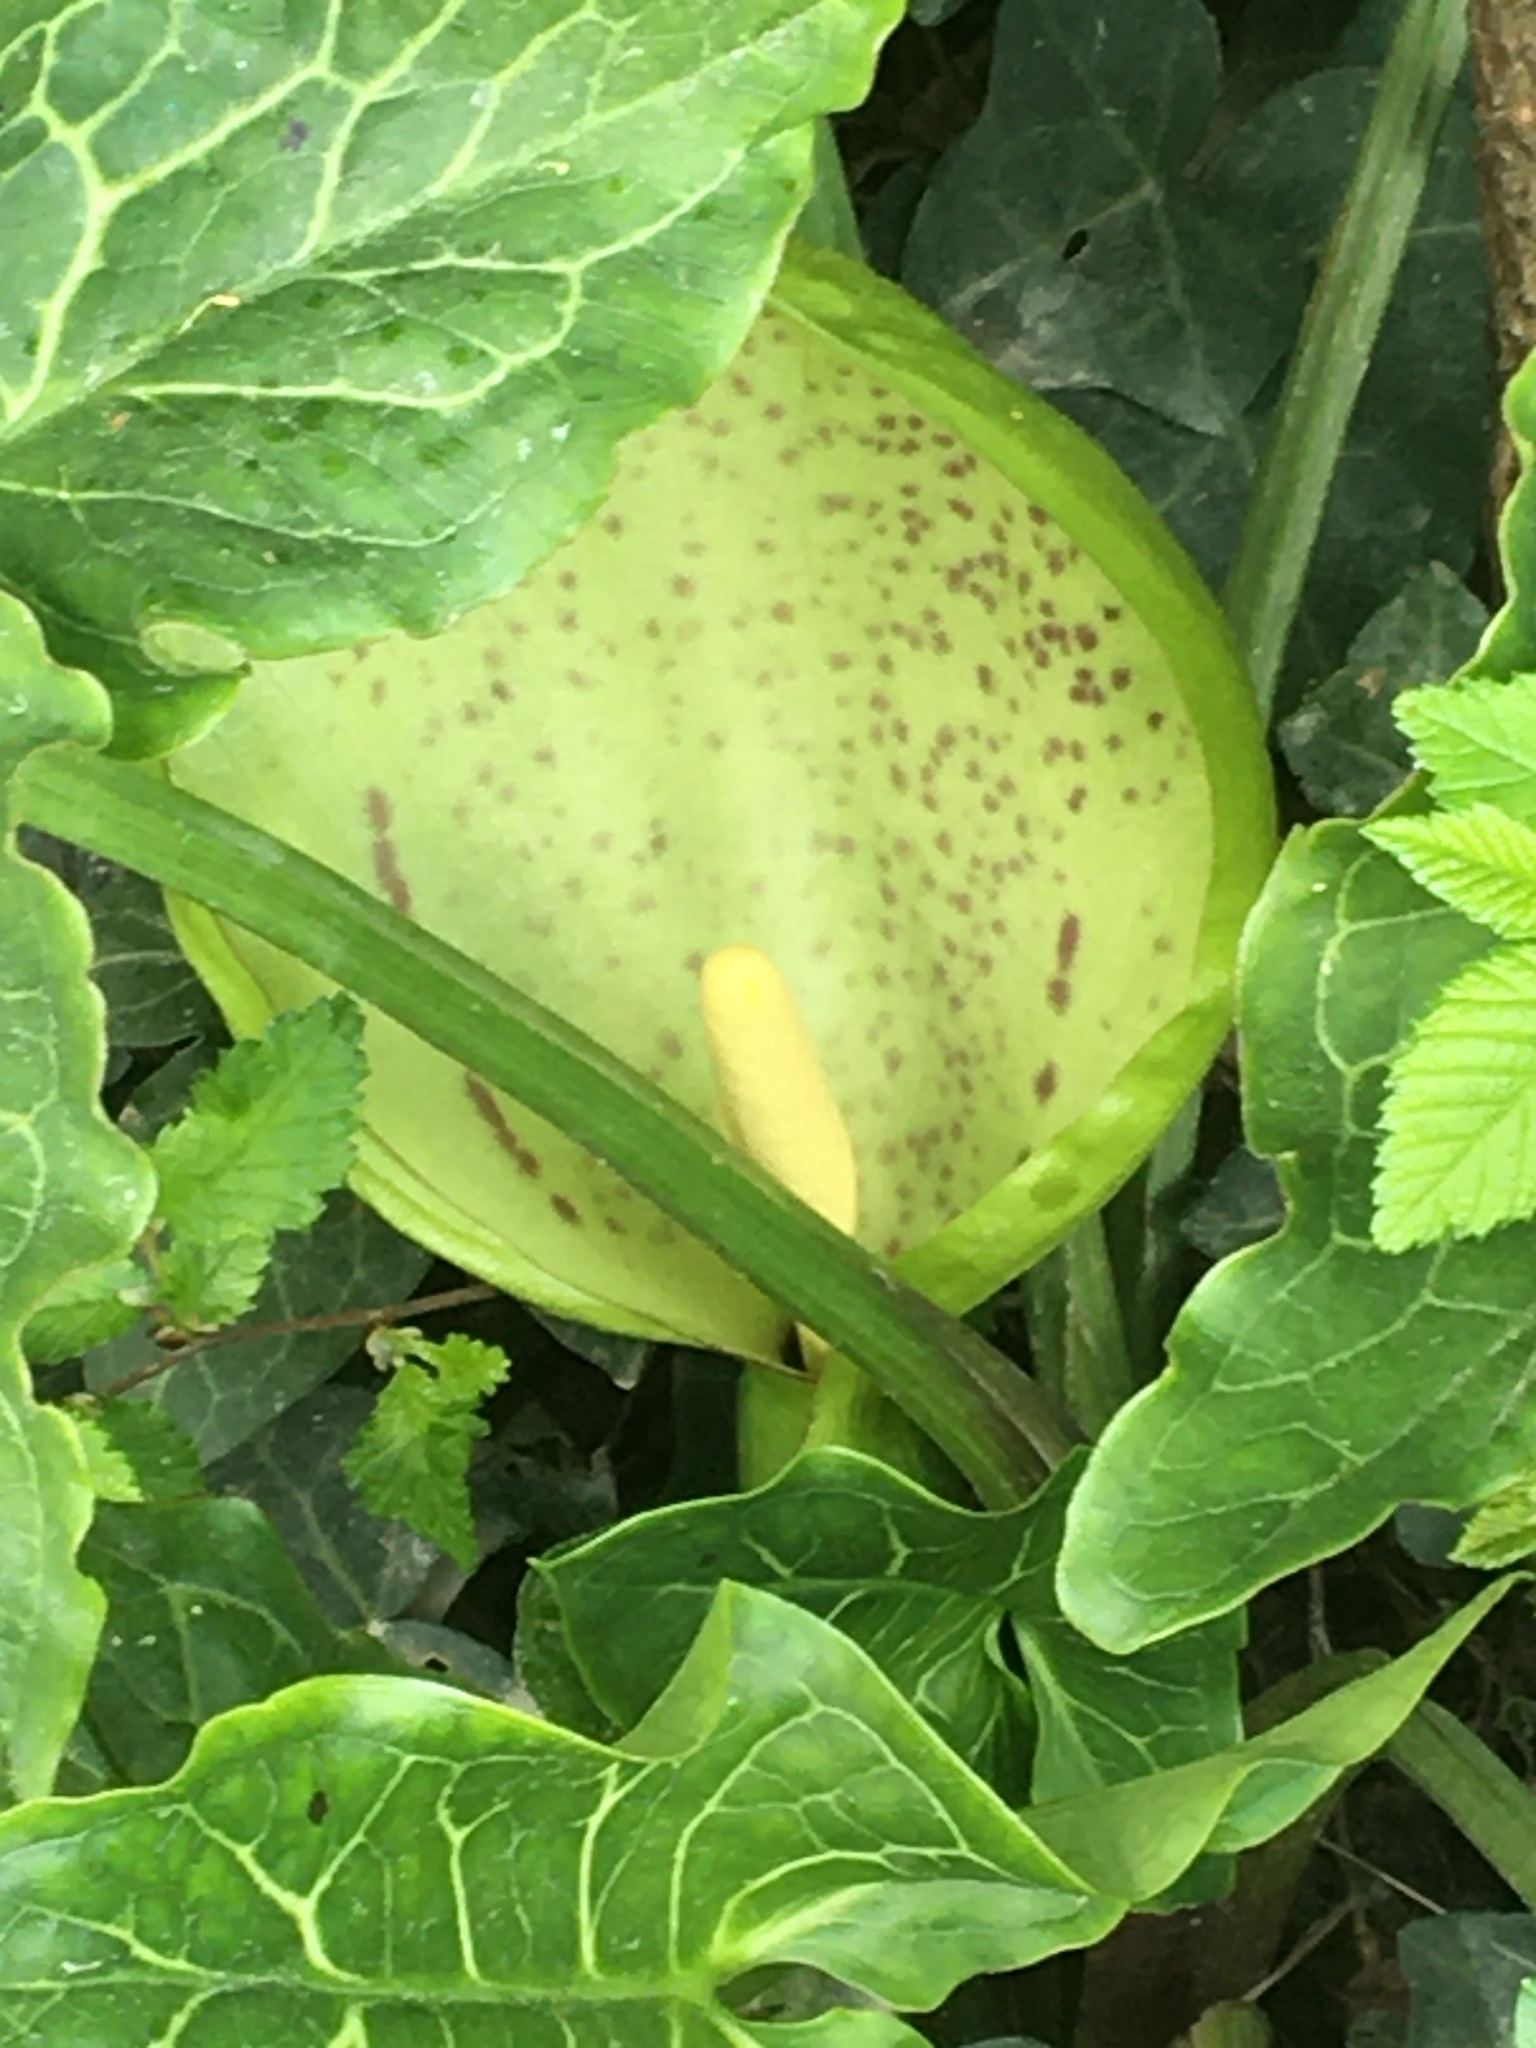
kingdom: Plantae
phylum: Tracheophyta
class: Liliopsida
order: Alismatales
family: Araceae
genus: Arum
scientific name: Arum italicum
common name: Italian lords-and-ladies
